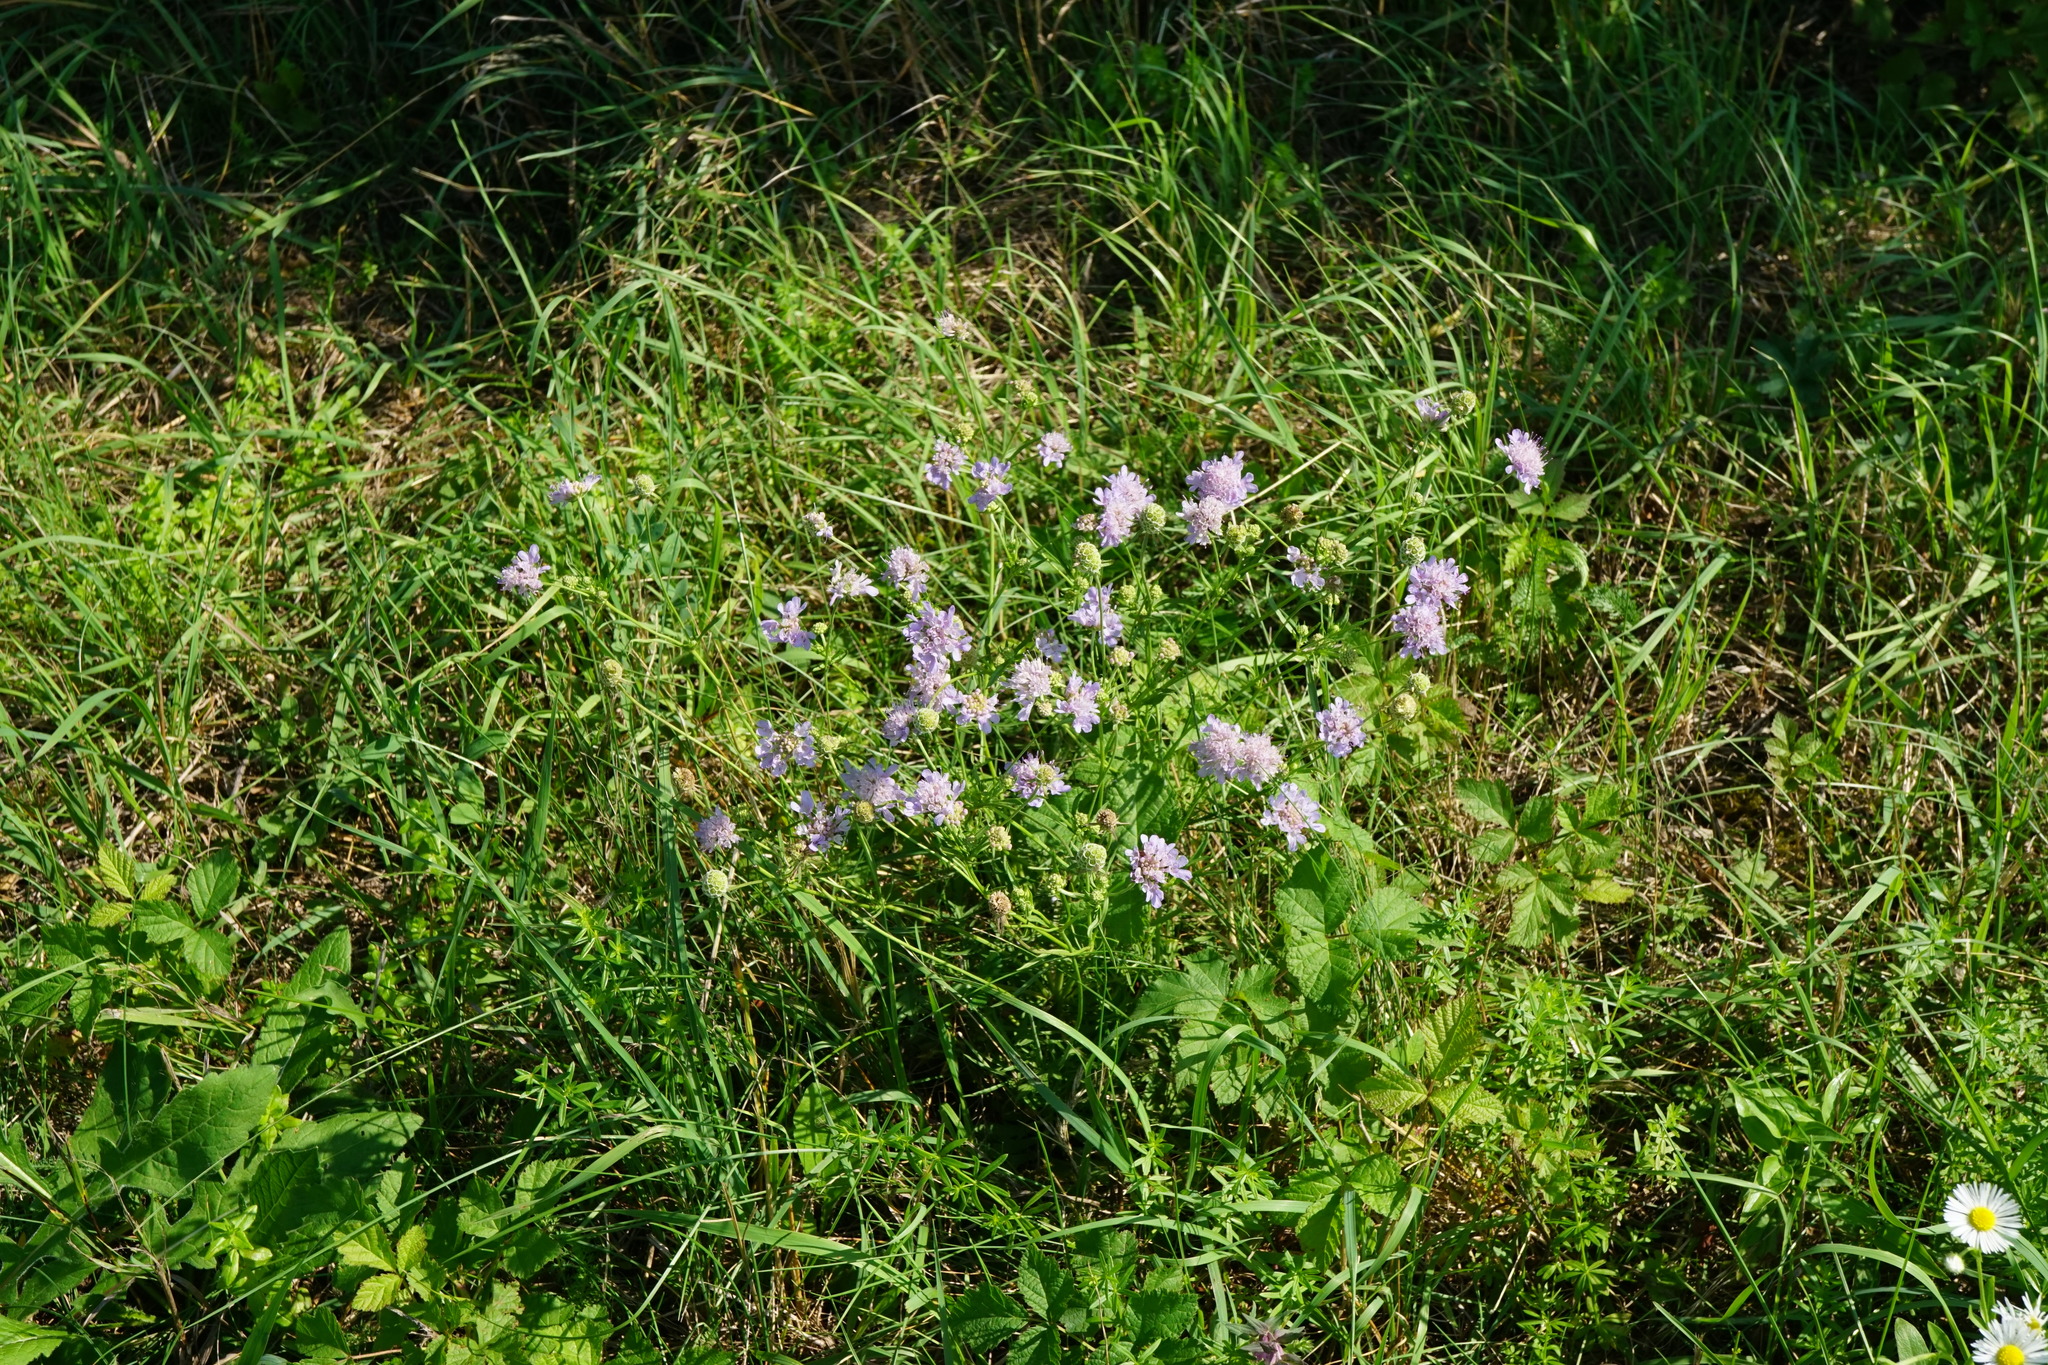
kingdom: Plantae
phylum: Tracheophyta
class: Magnoliopsida
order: Dipsacales
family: Caprifoliaceae
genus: Scabiosa
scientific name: Scabiosa triandra
